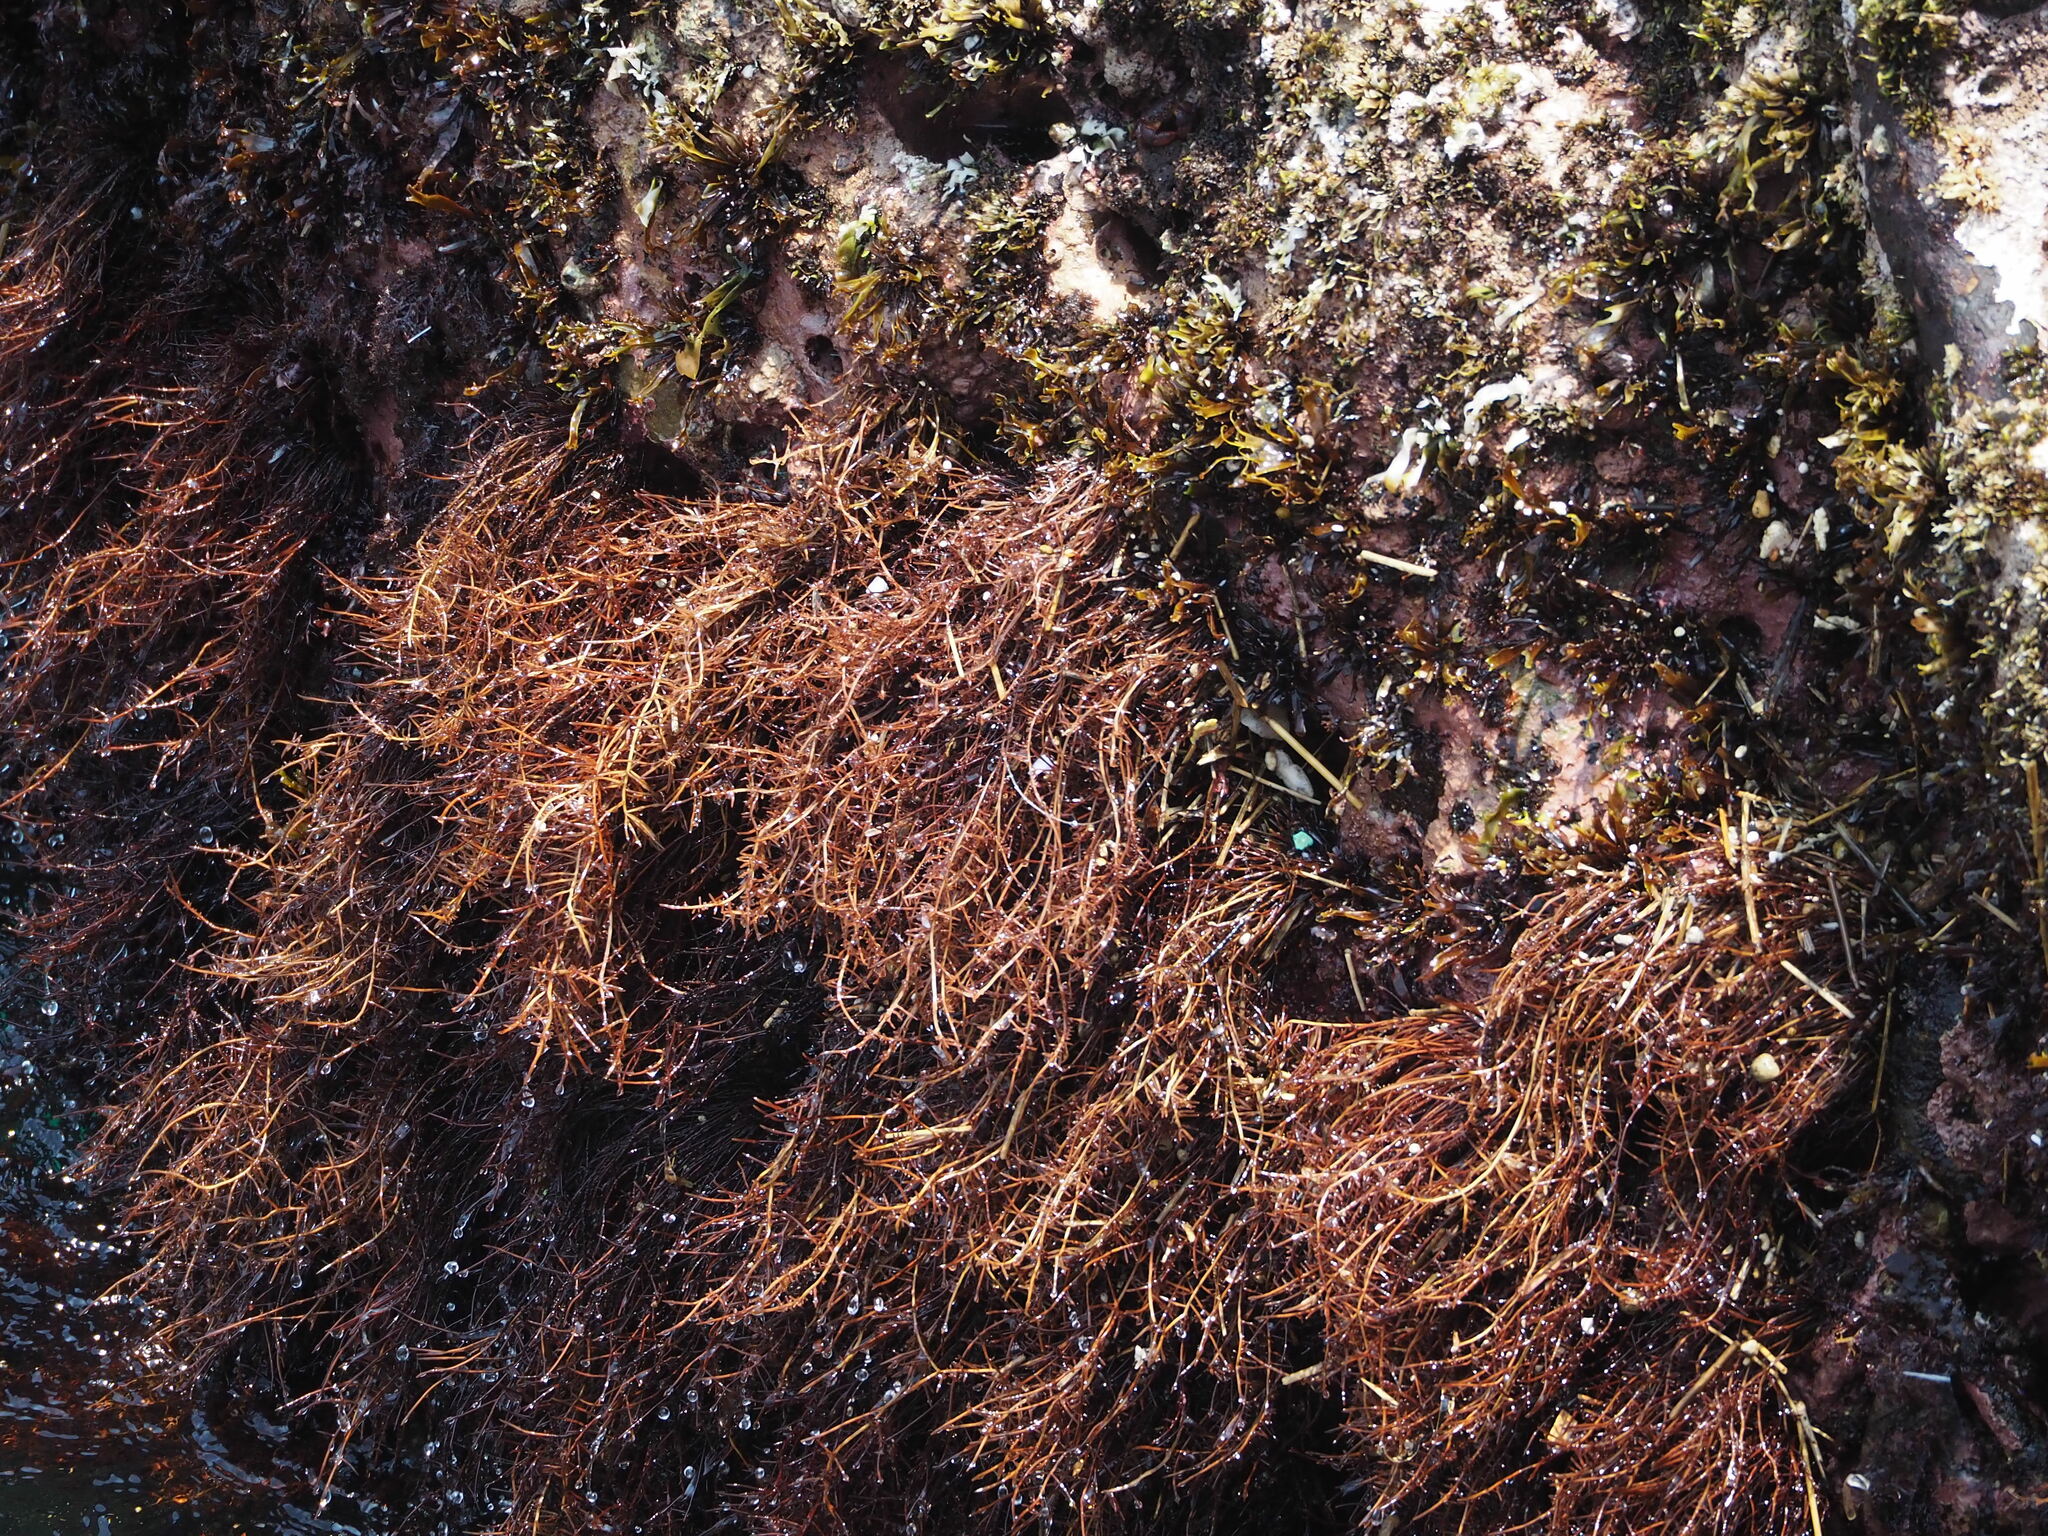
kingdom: Plantae
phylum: Rhodophyta
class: Florideophyceae
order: Gelidiales
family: Gelidiaceae
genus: Gelidium
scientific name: Gelidium amansii
